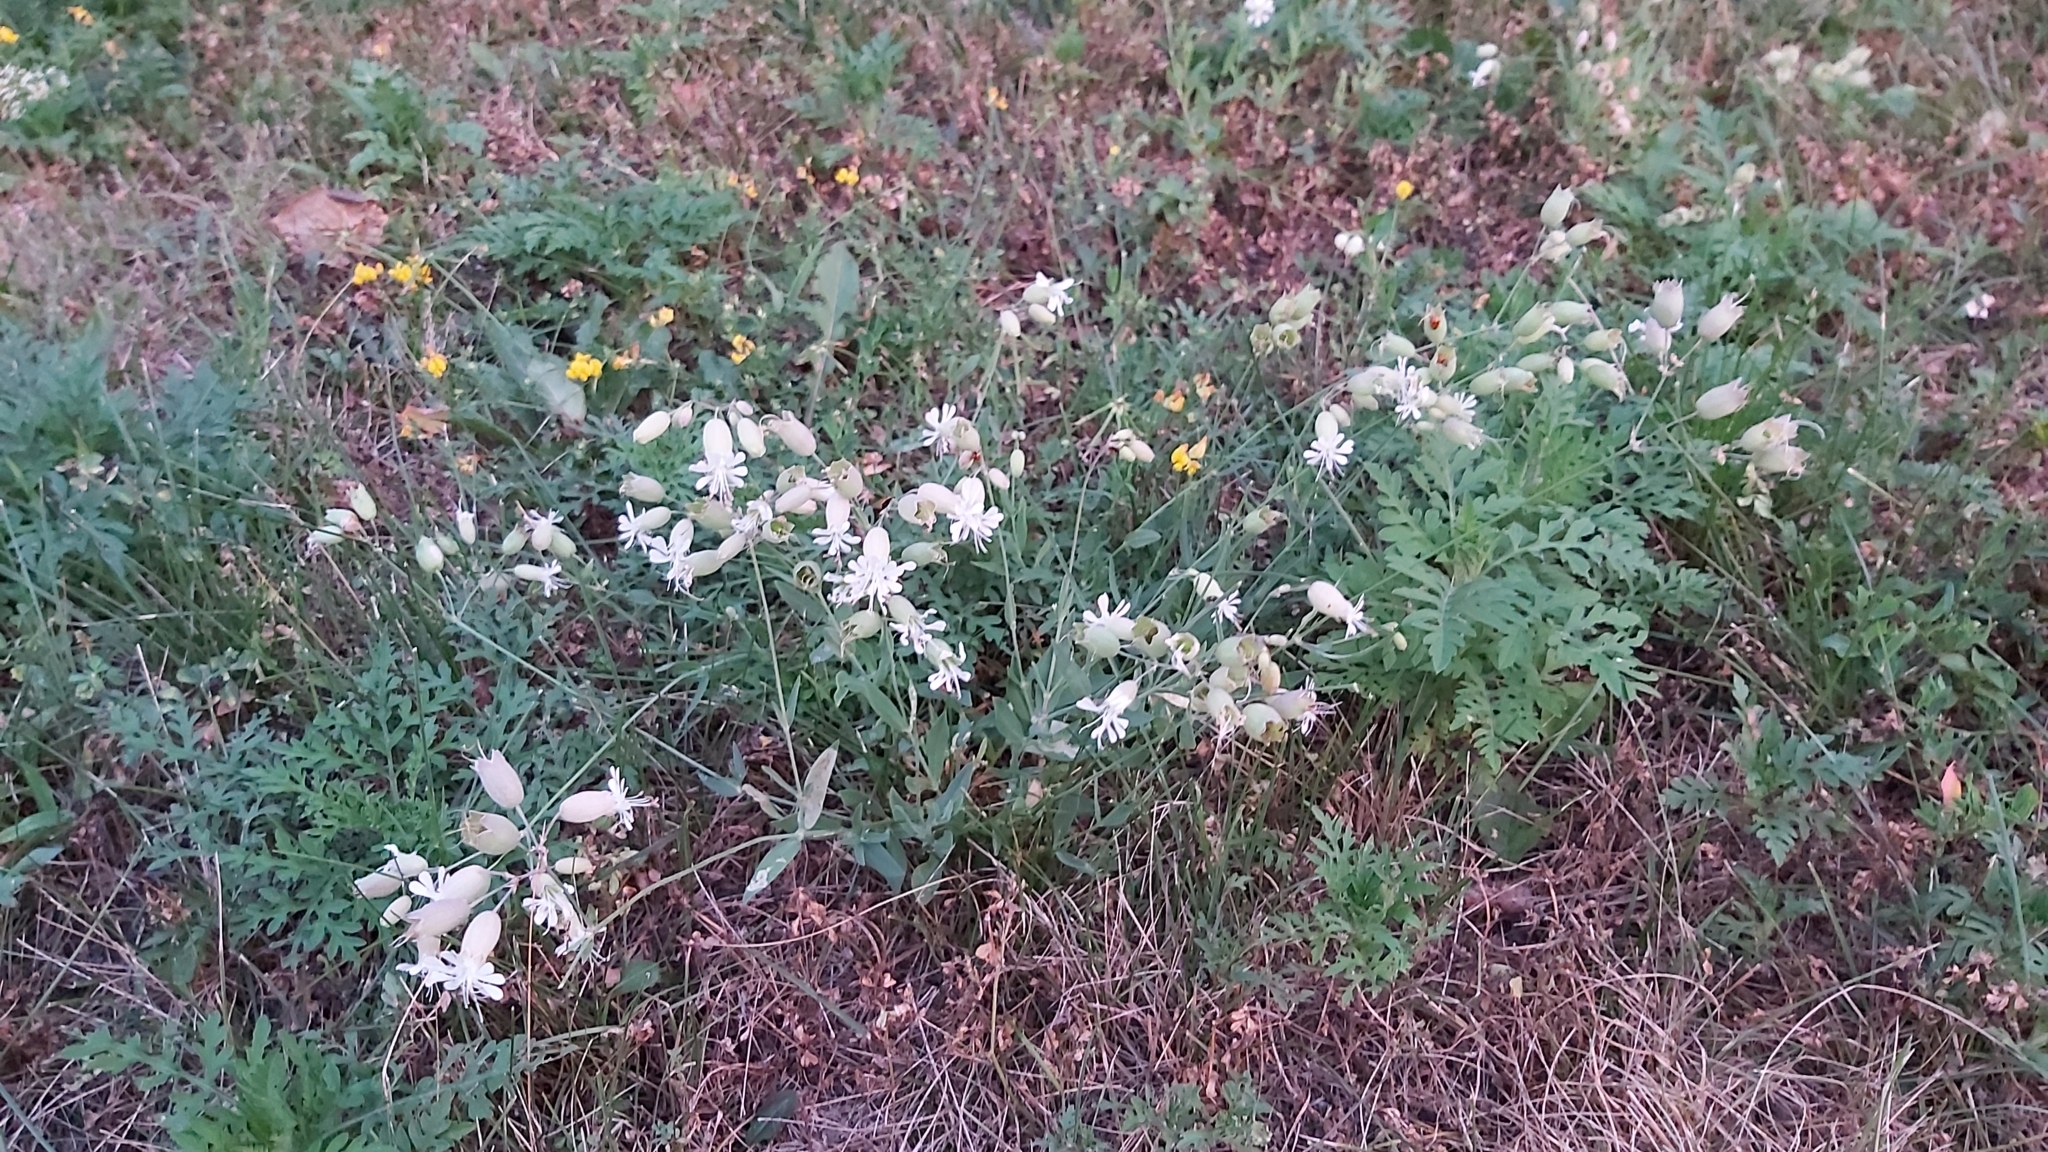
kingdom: Plantae
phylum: Tracheophyta
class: Magnoliopsida
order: Caryophyllales
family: Caryophyllaceae
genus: Silene
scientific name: Silene vulgaris
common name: Bladder campion
